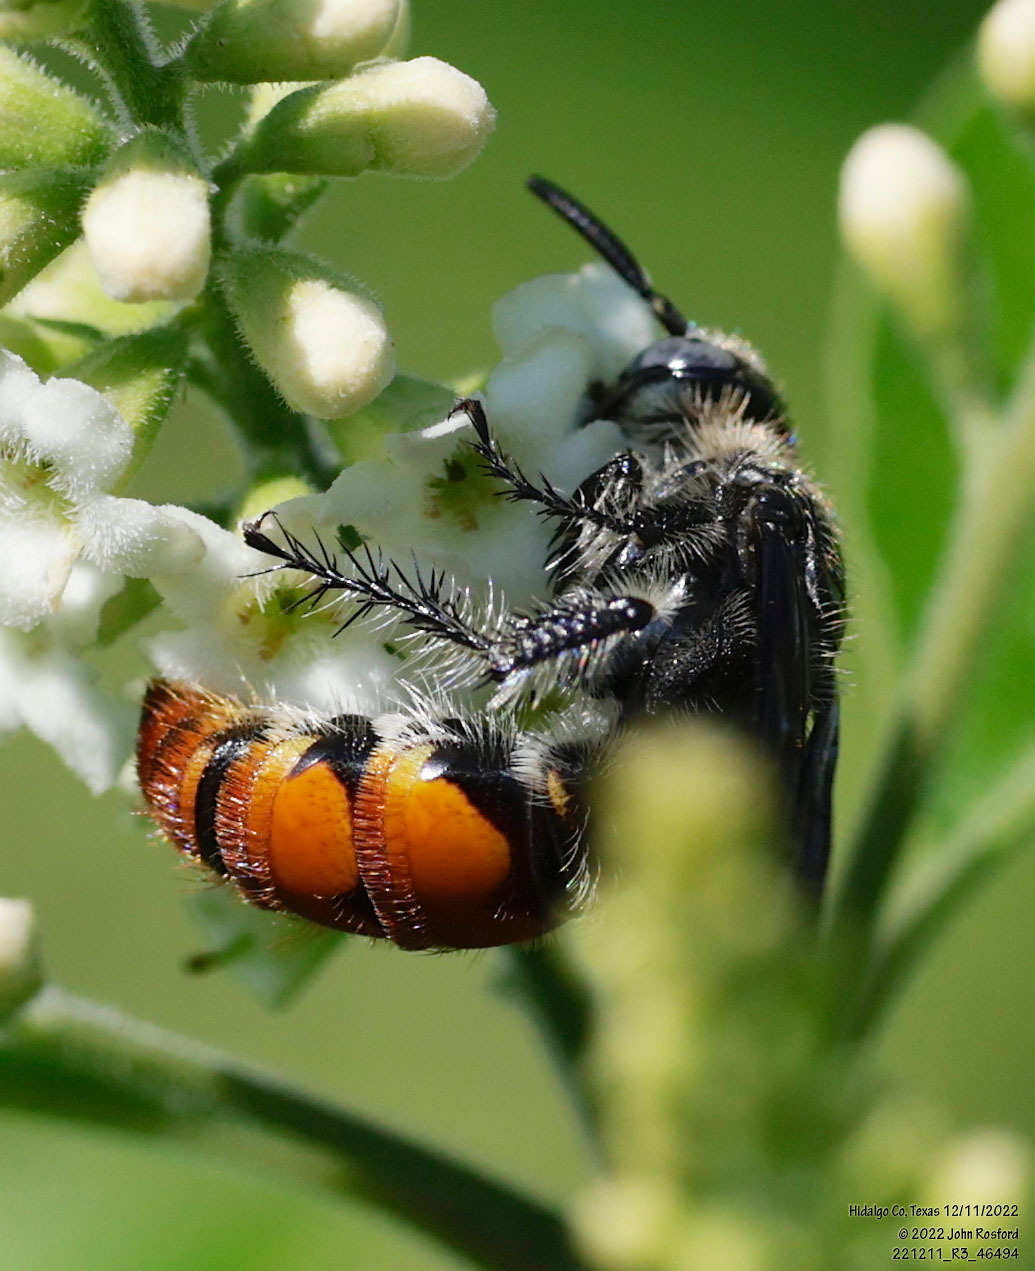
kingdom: Animalia
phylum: Arthropoda
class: Insecta
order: Hymenoptera
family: Scoliidae
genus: Dielis
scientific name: Dielis tolteca
